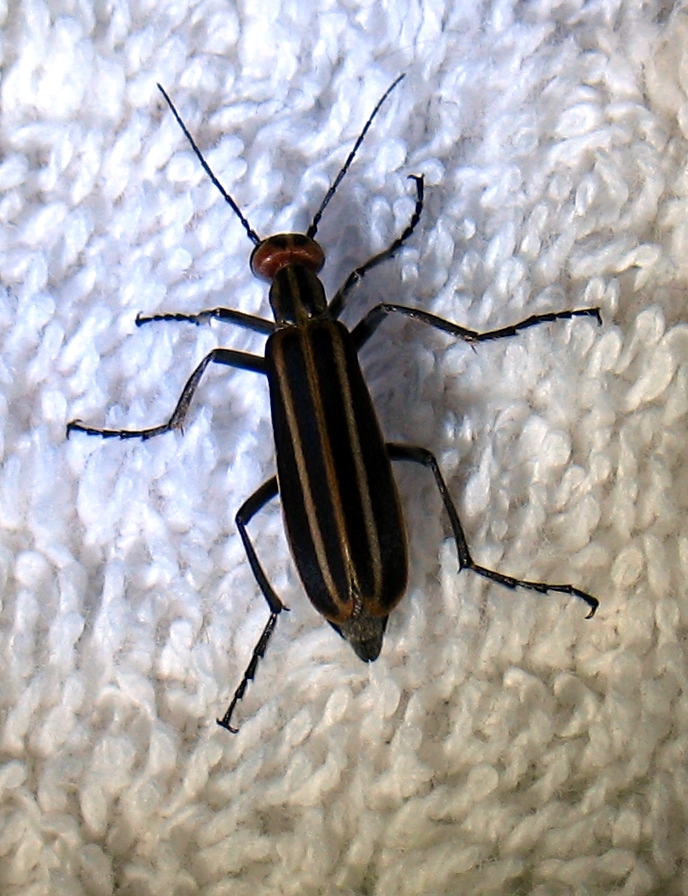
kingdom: Animalia
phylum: Arthropoda
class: Insecta
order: Coleoptera
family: Meloidae
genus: Epicauta
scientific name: Epicauta vittata
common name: Old-fashioned potato beetle
